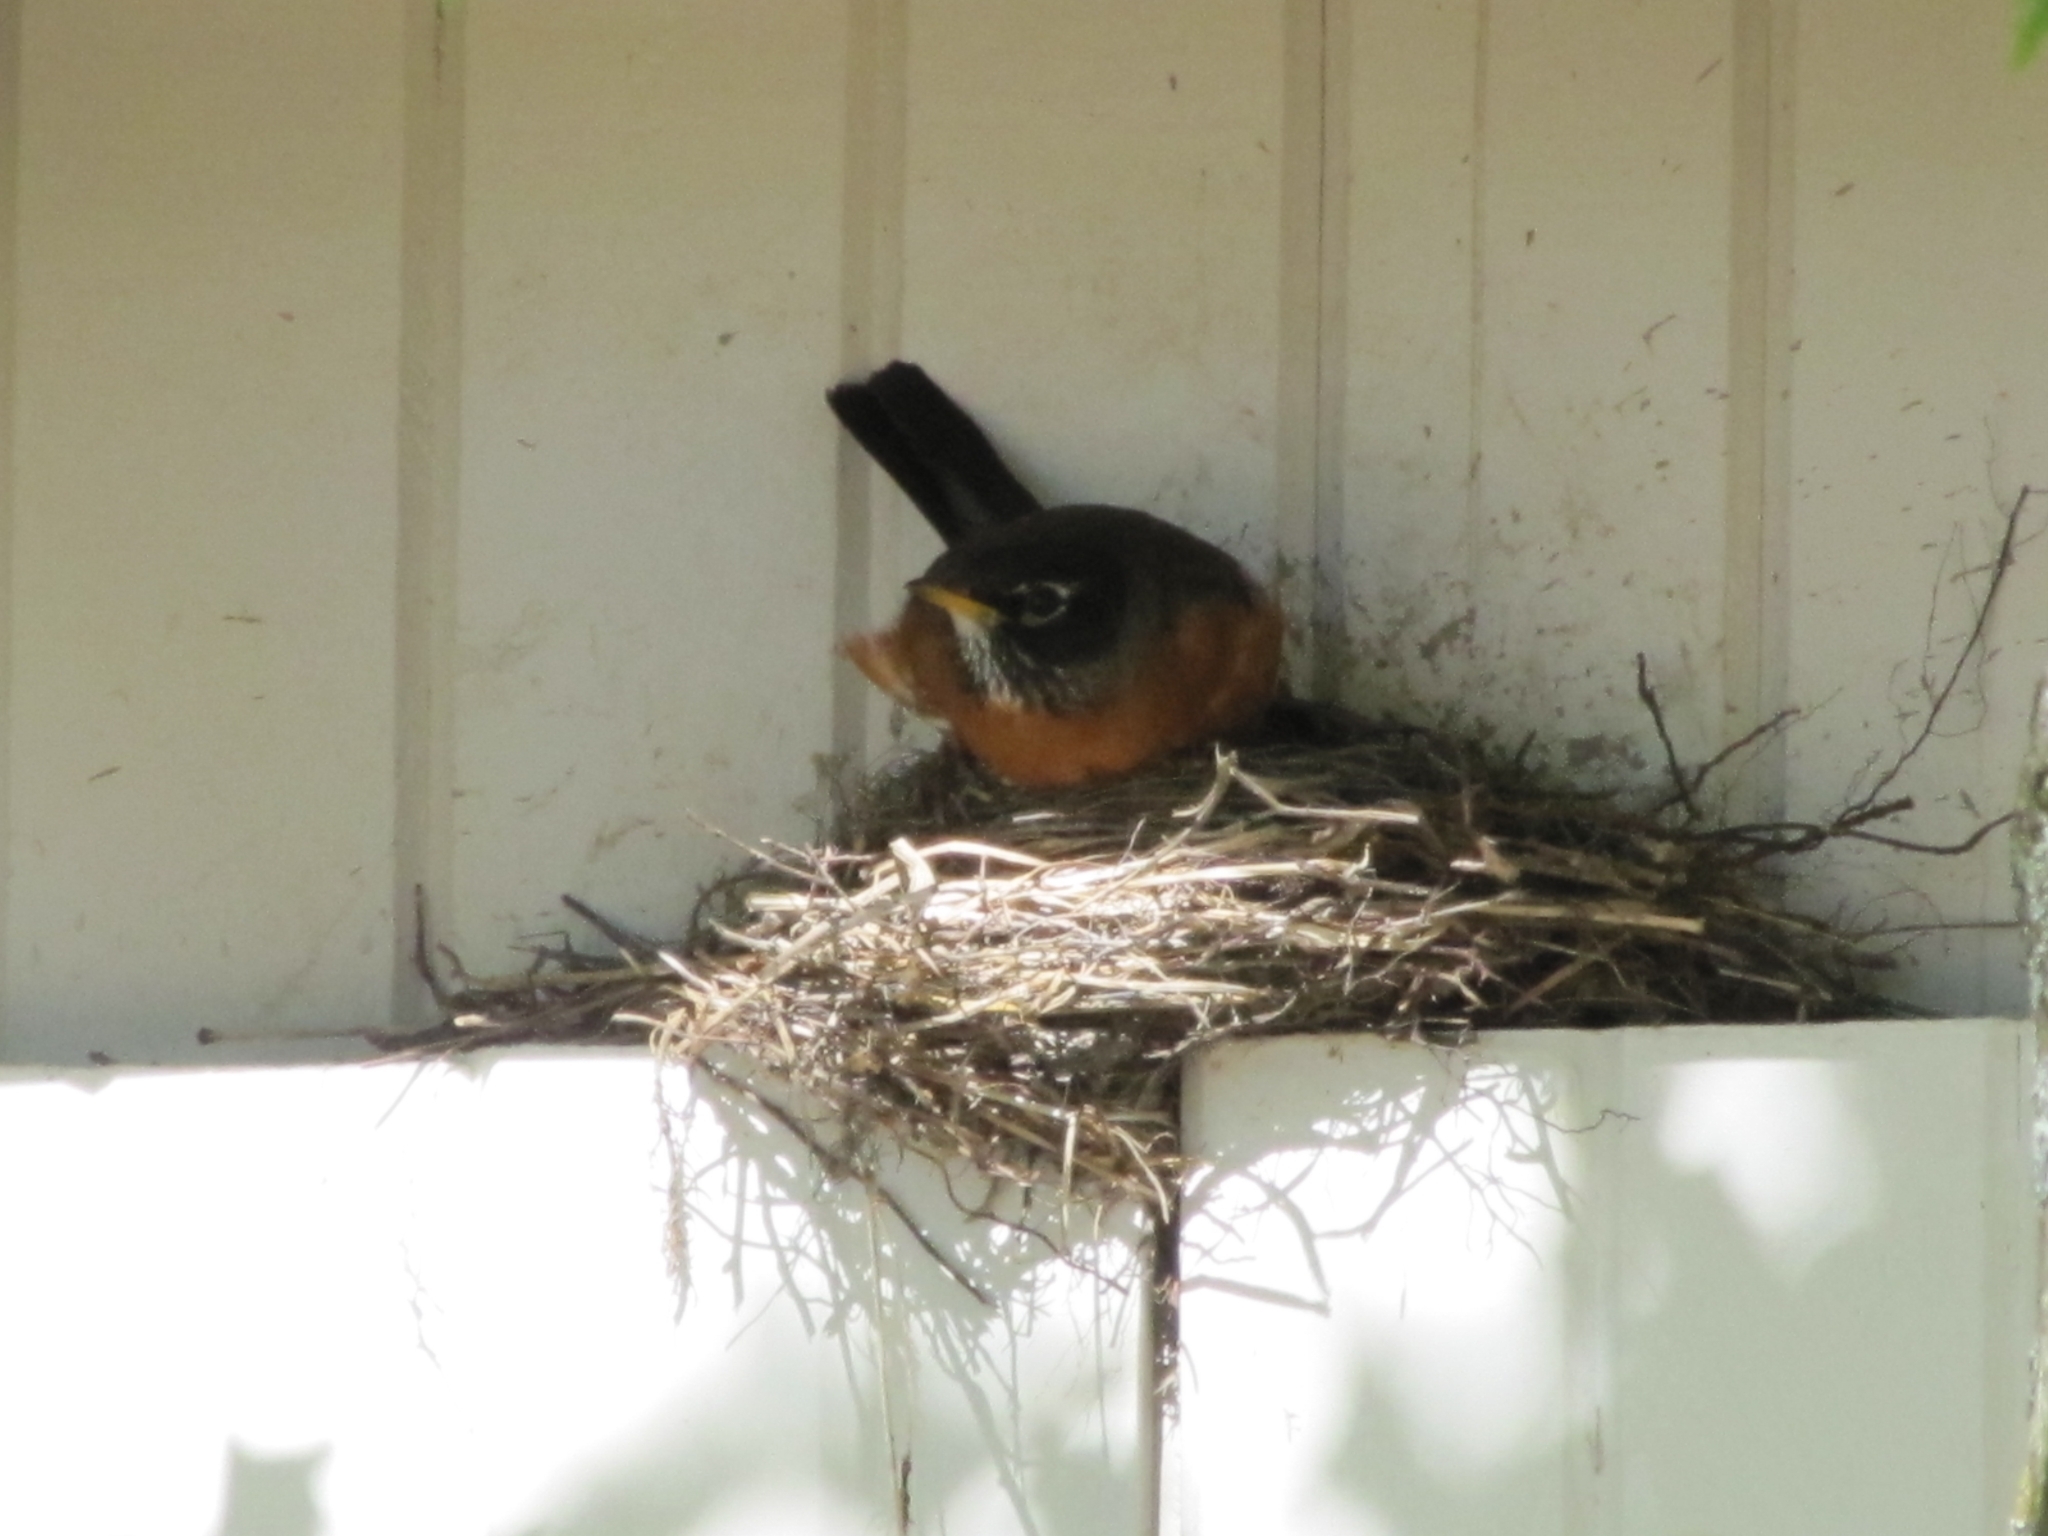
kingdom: Animalia
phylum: Chordata
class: Aves
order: Passeriformes
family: Turdidae
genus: Turdus
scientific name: Turdus migratorius
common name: American robin
